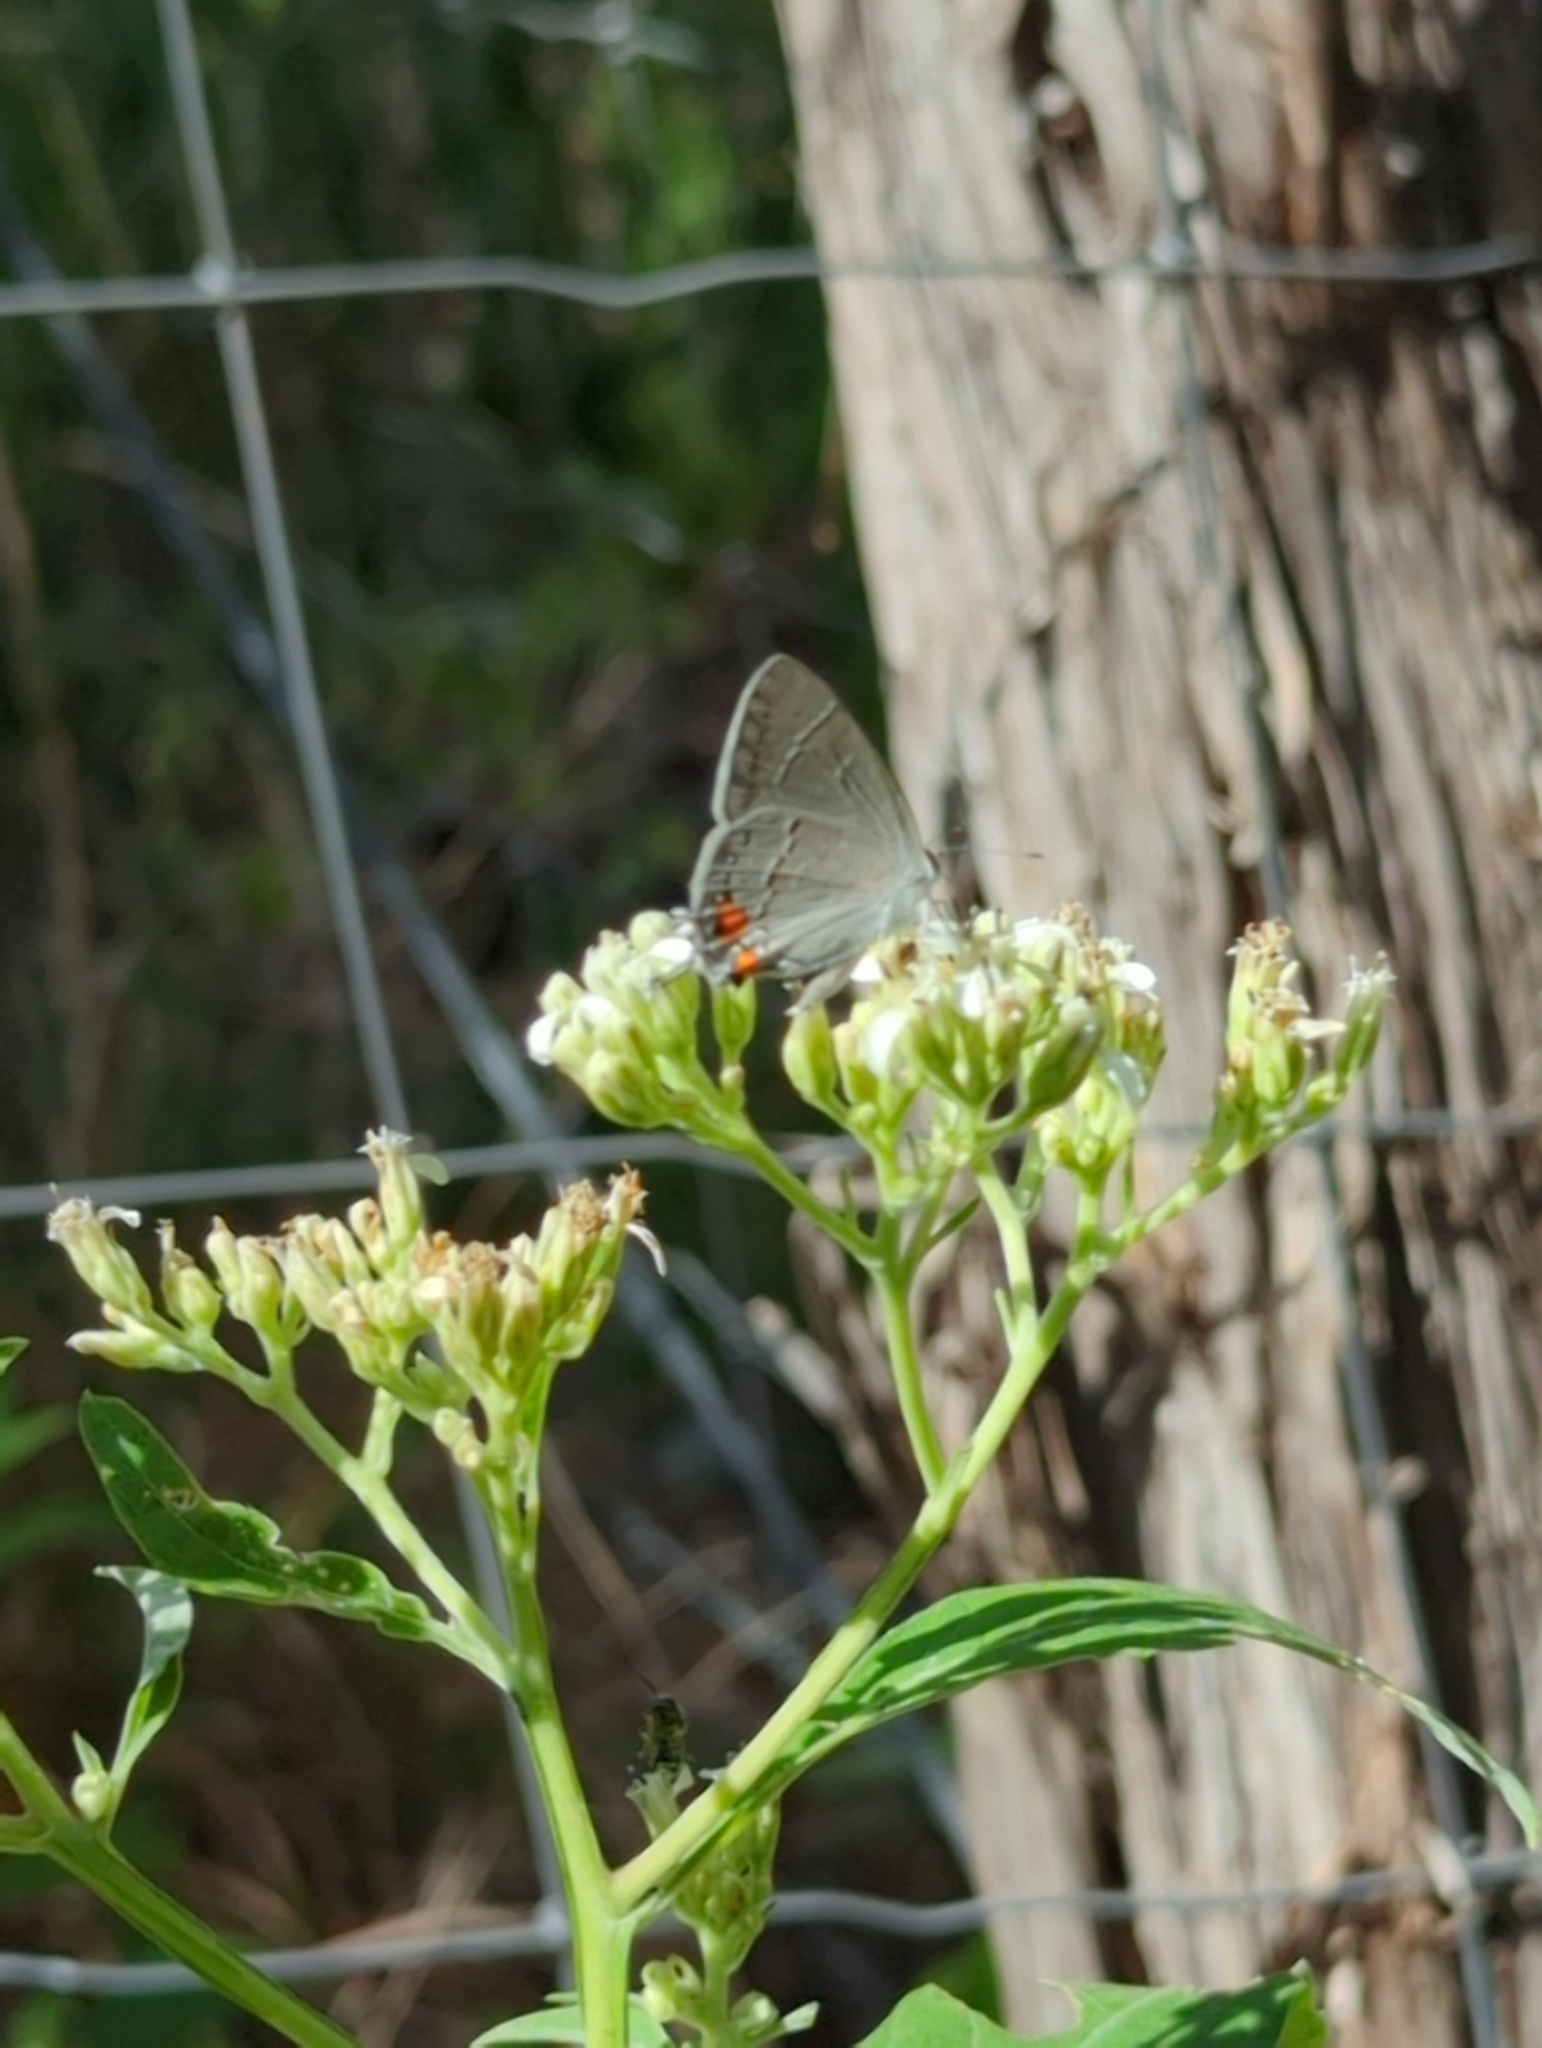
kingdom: Animalia
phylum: Arthropoda
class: Insecta
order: Lepidoptera
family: Lycaenidae
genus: Strymon
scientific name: Strymon melinus
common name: Gray hairstreak
